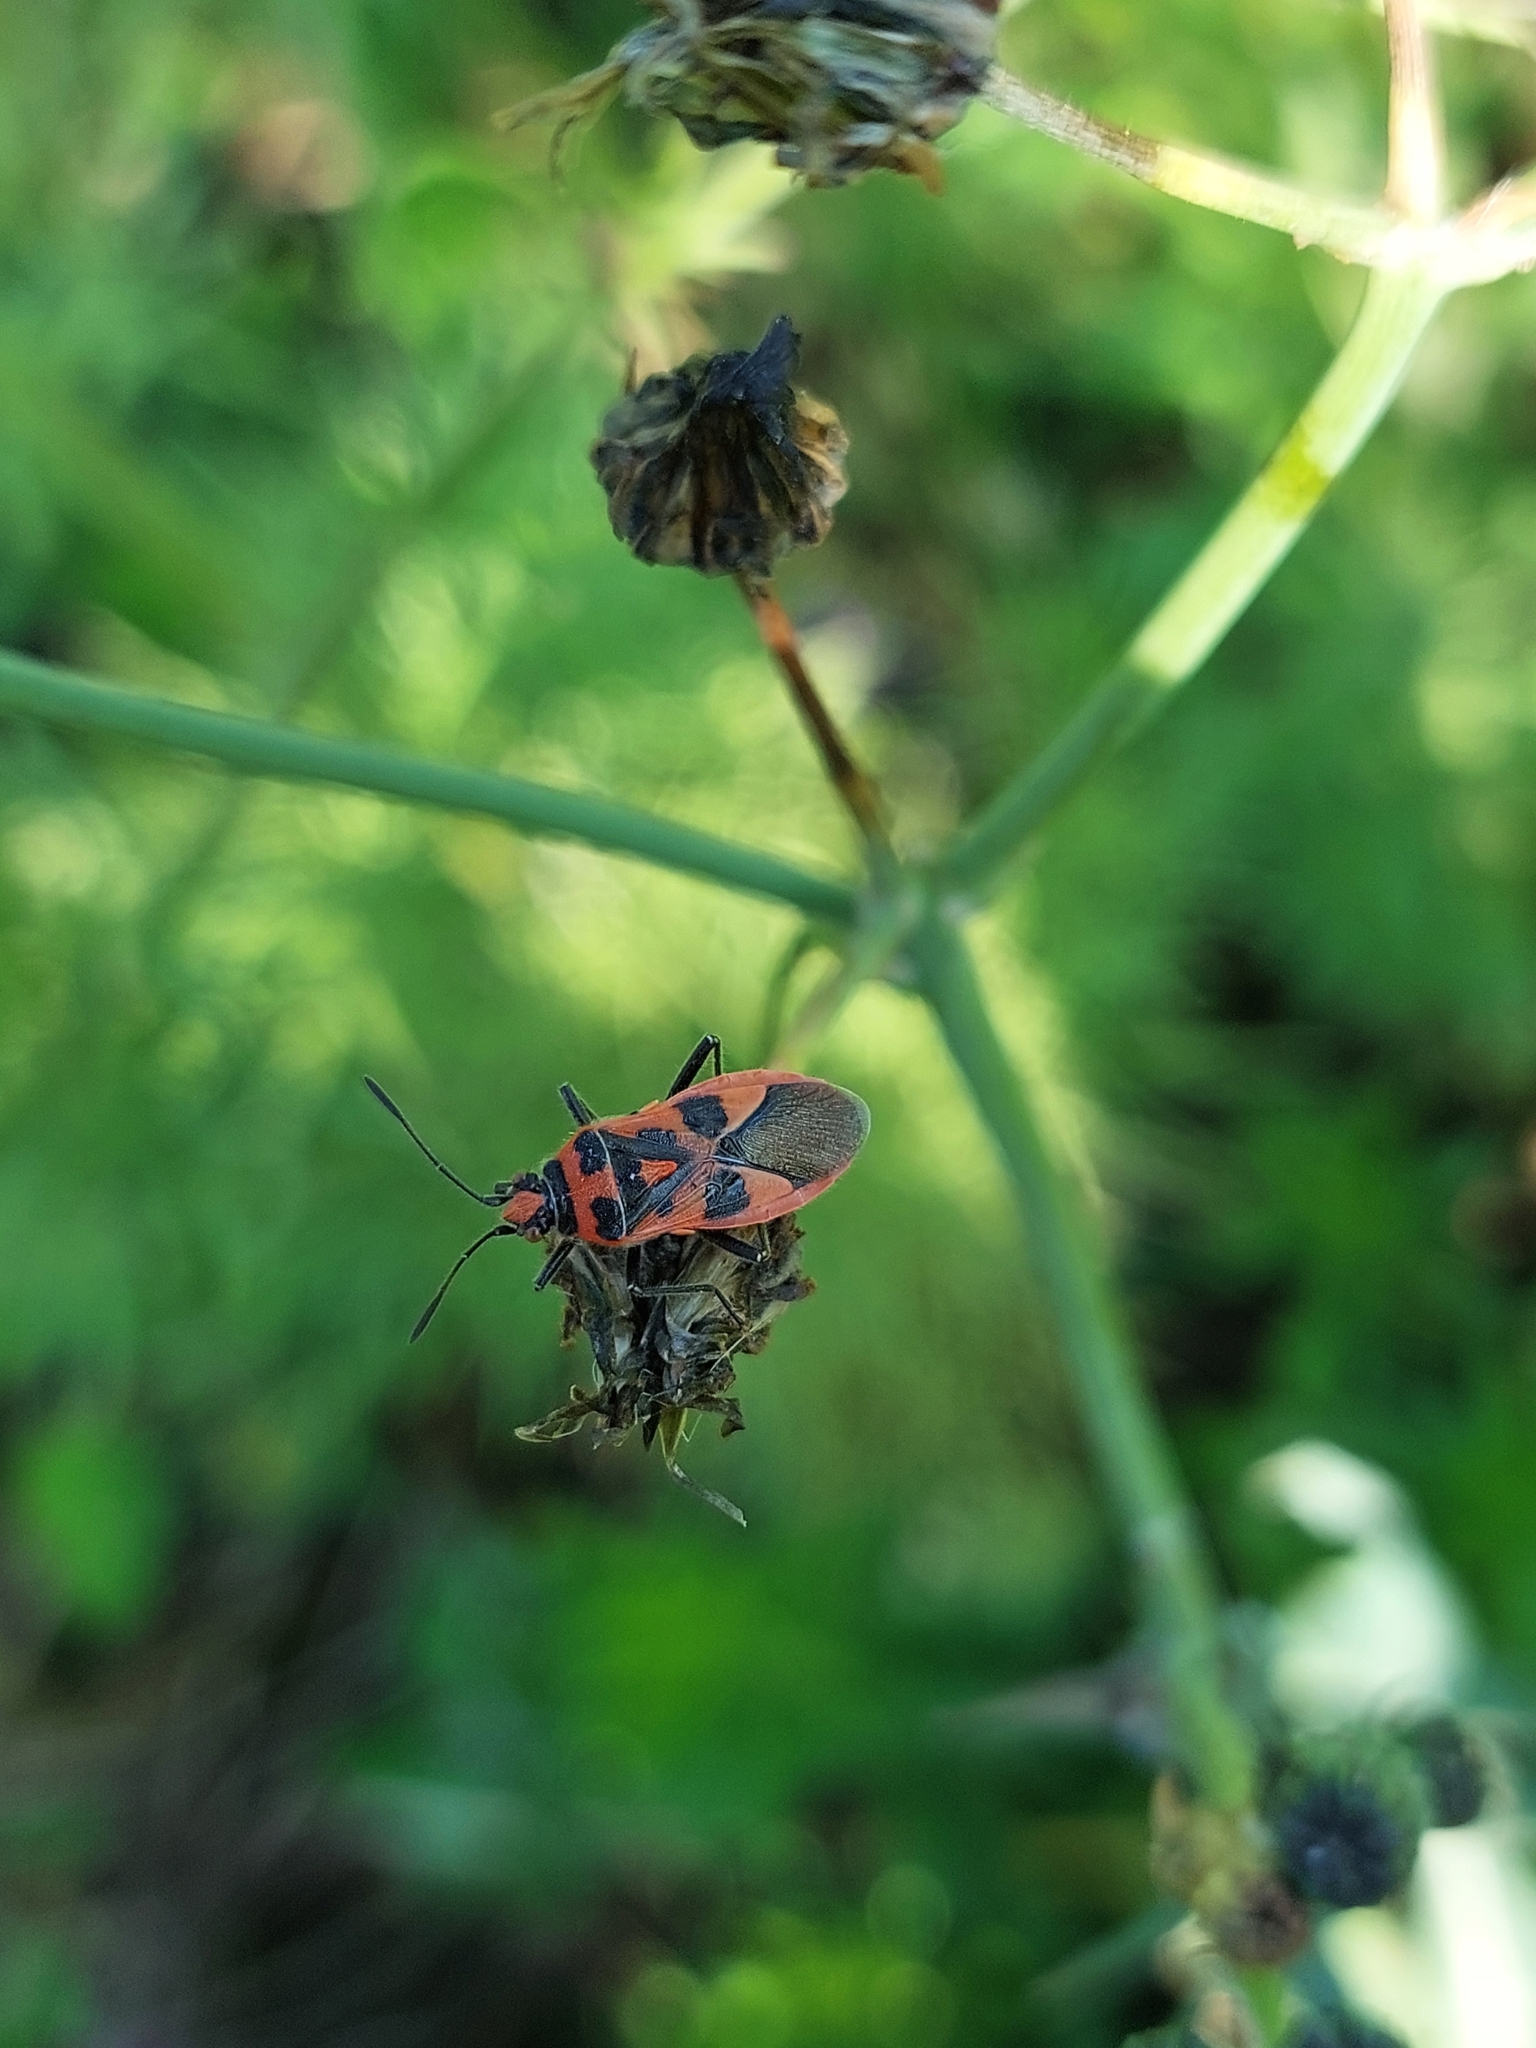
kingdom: Animalia
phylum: Arthropoda
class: Insecta
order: Hemiptera
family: Rhopalidae
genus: Corizus
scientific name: Corizus hyoscyami
